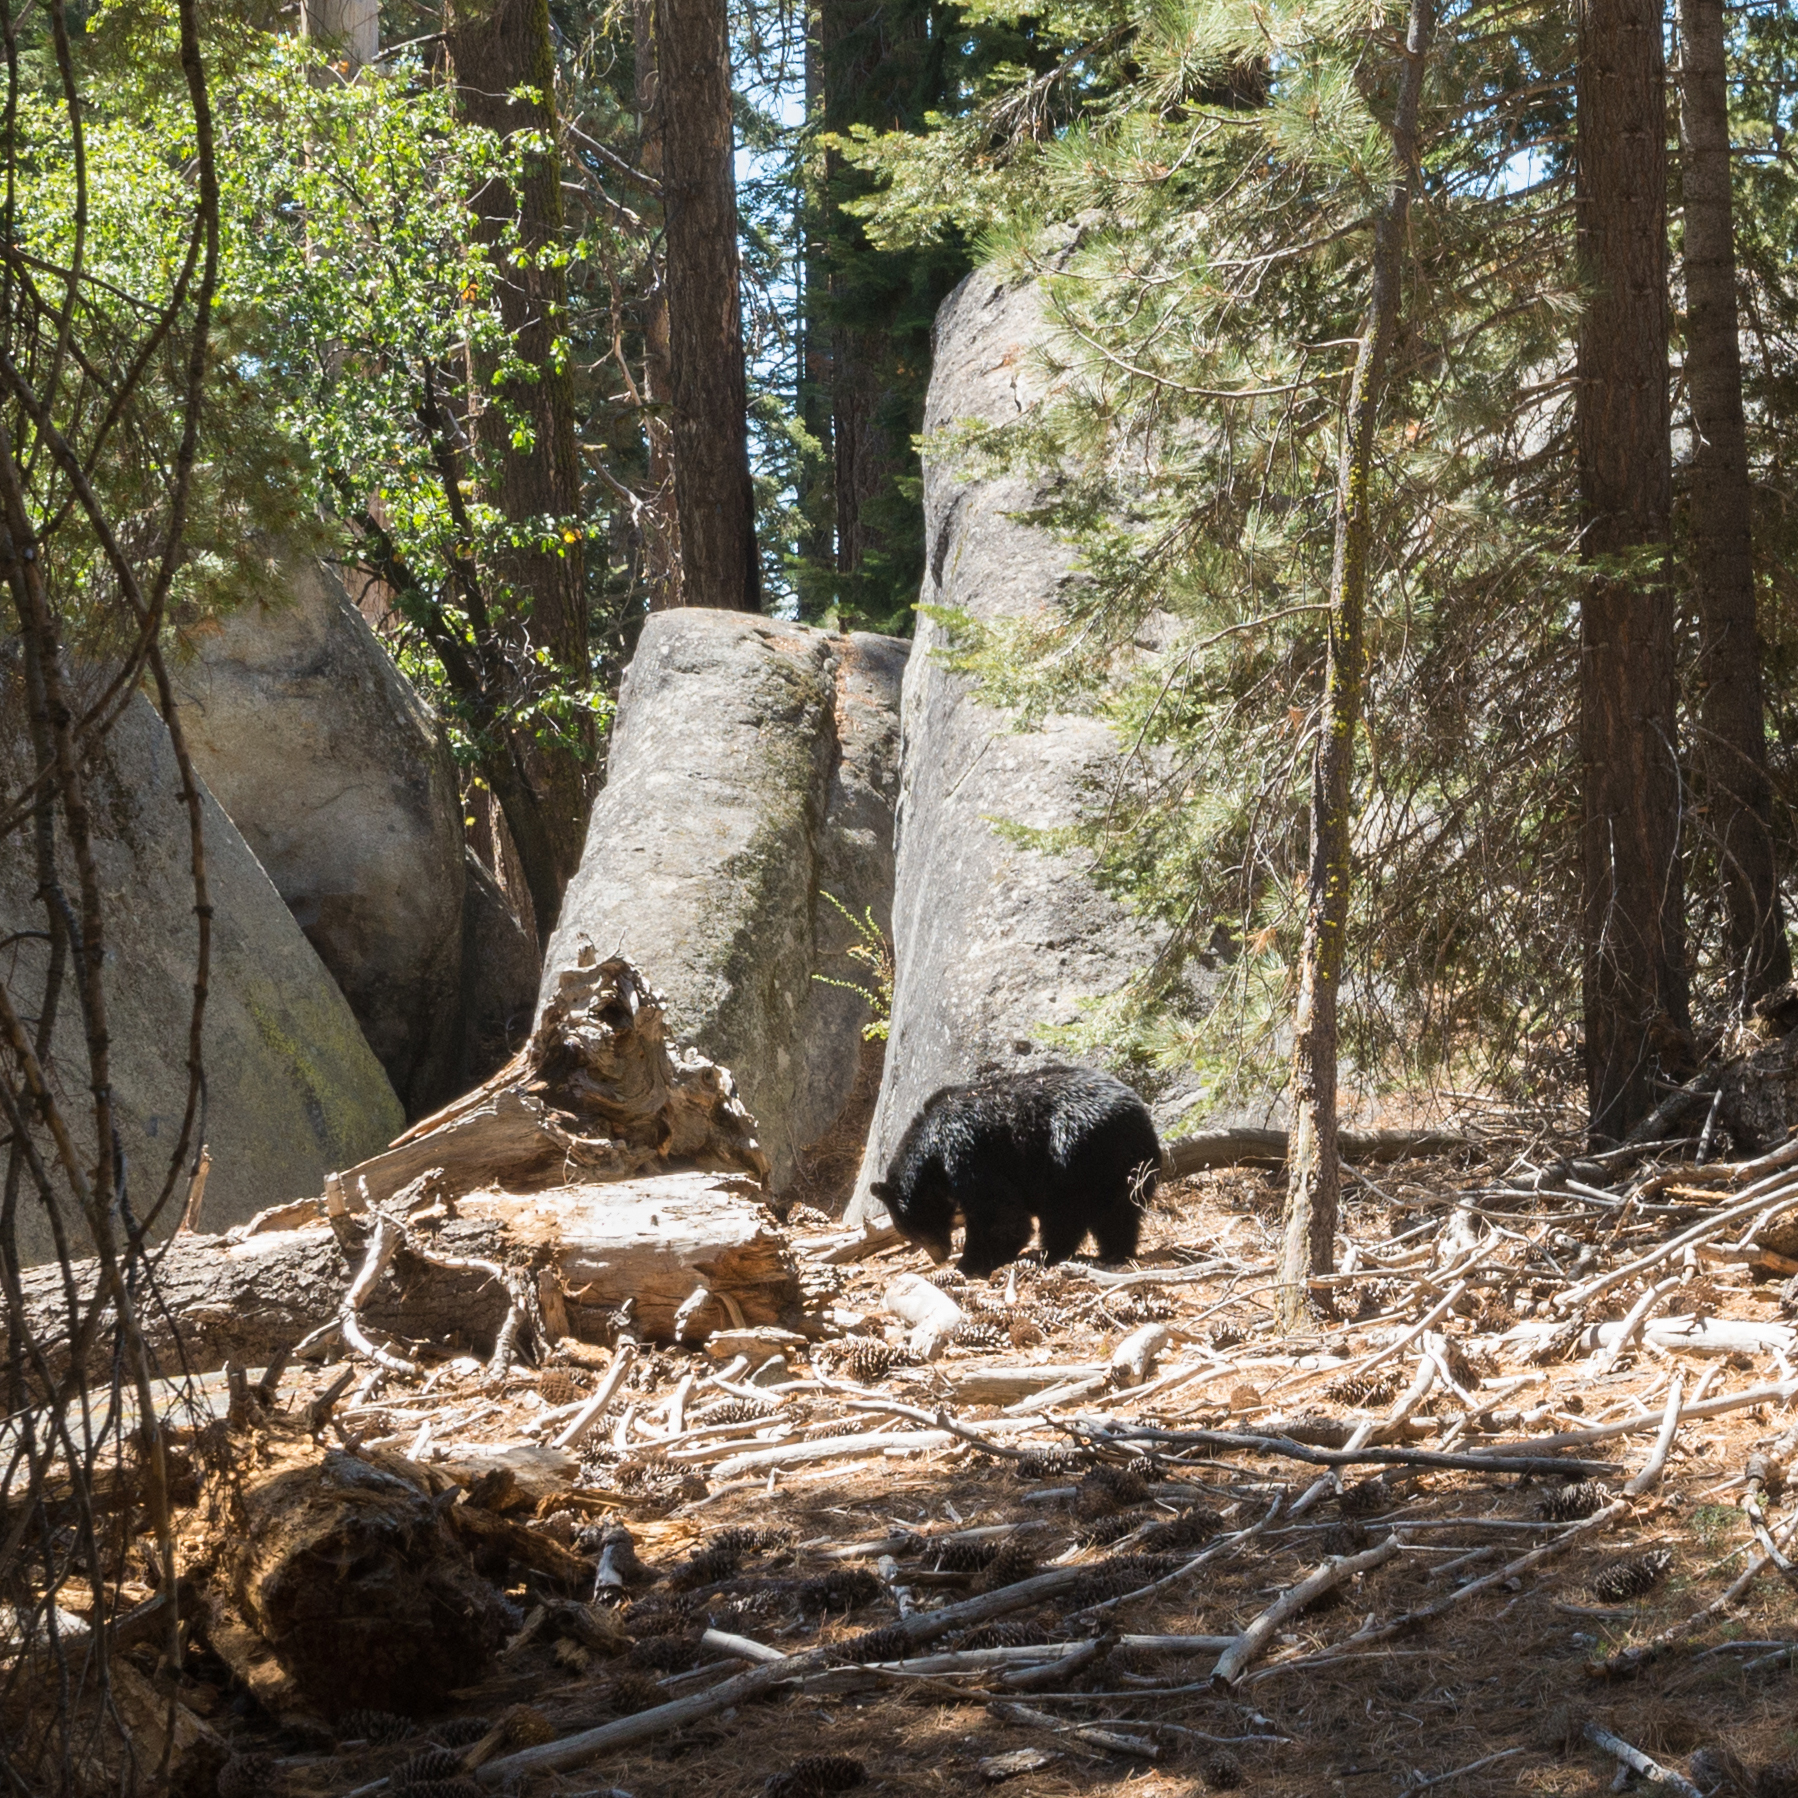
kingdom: Animalia
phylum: Chordata
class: Mammalia
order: Carnivora
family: Ursidae
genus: Ursus
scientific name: Ursus americanus
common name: American black bear
